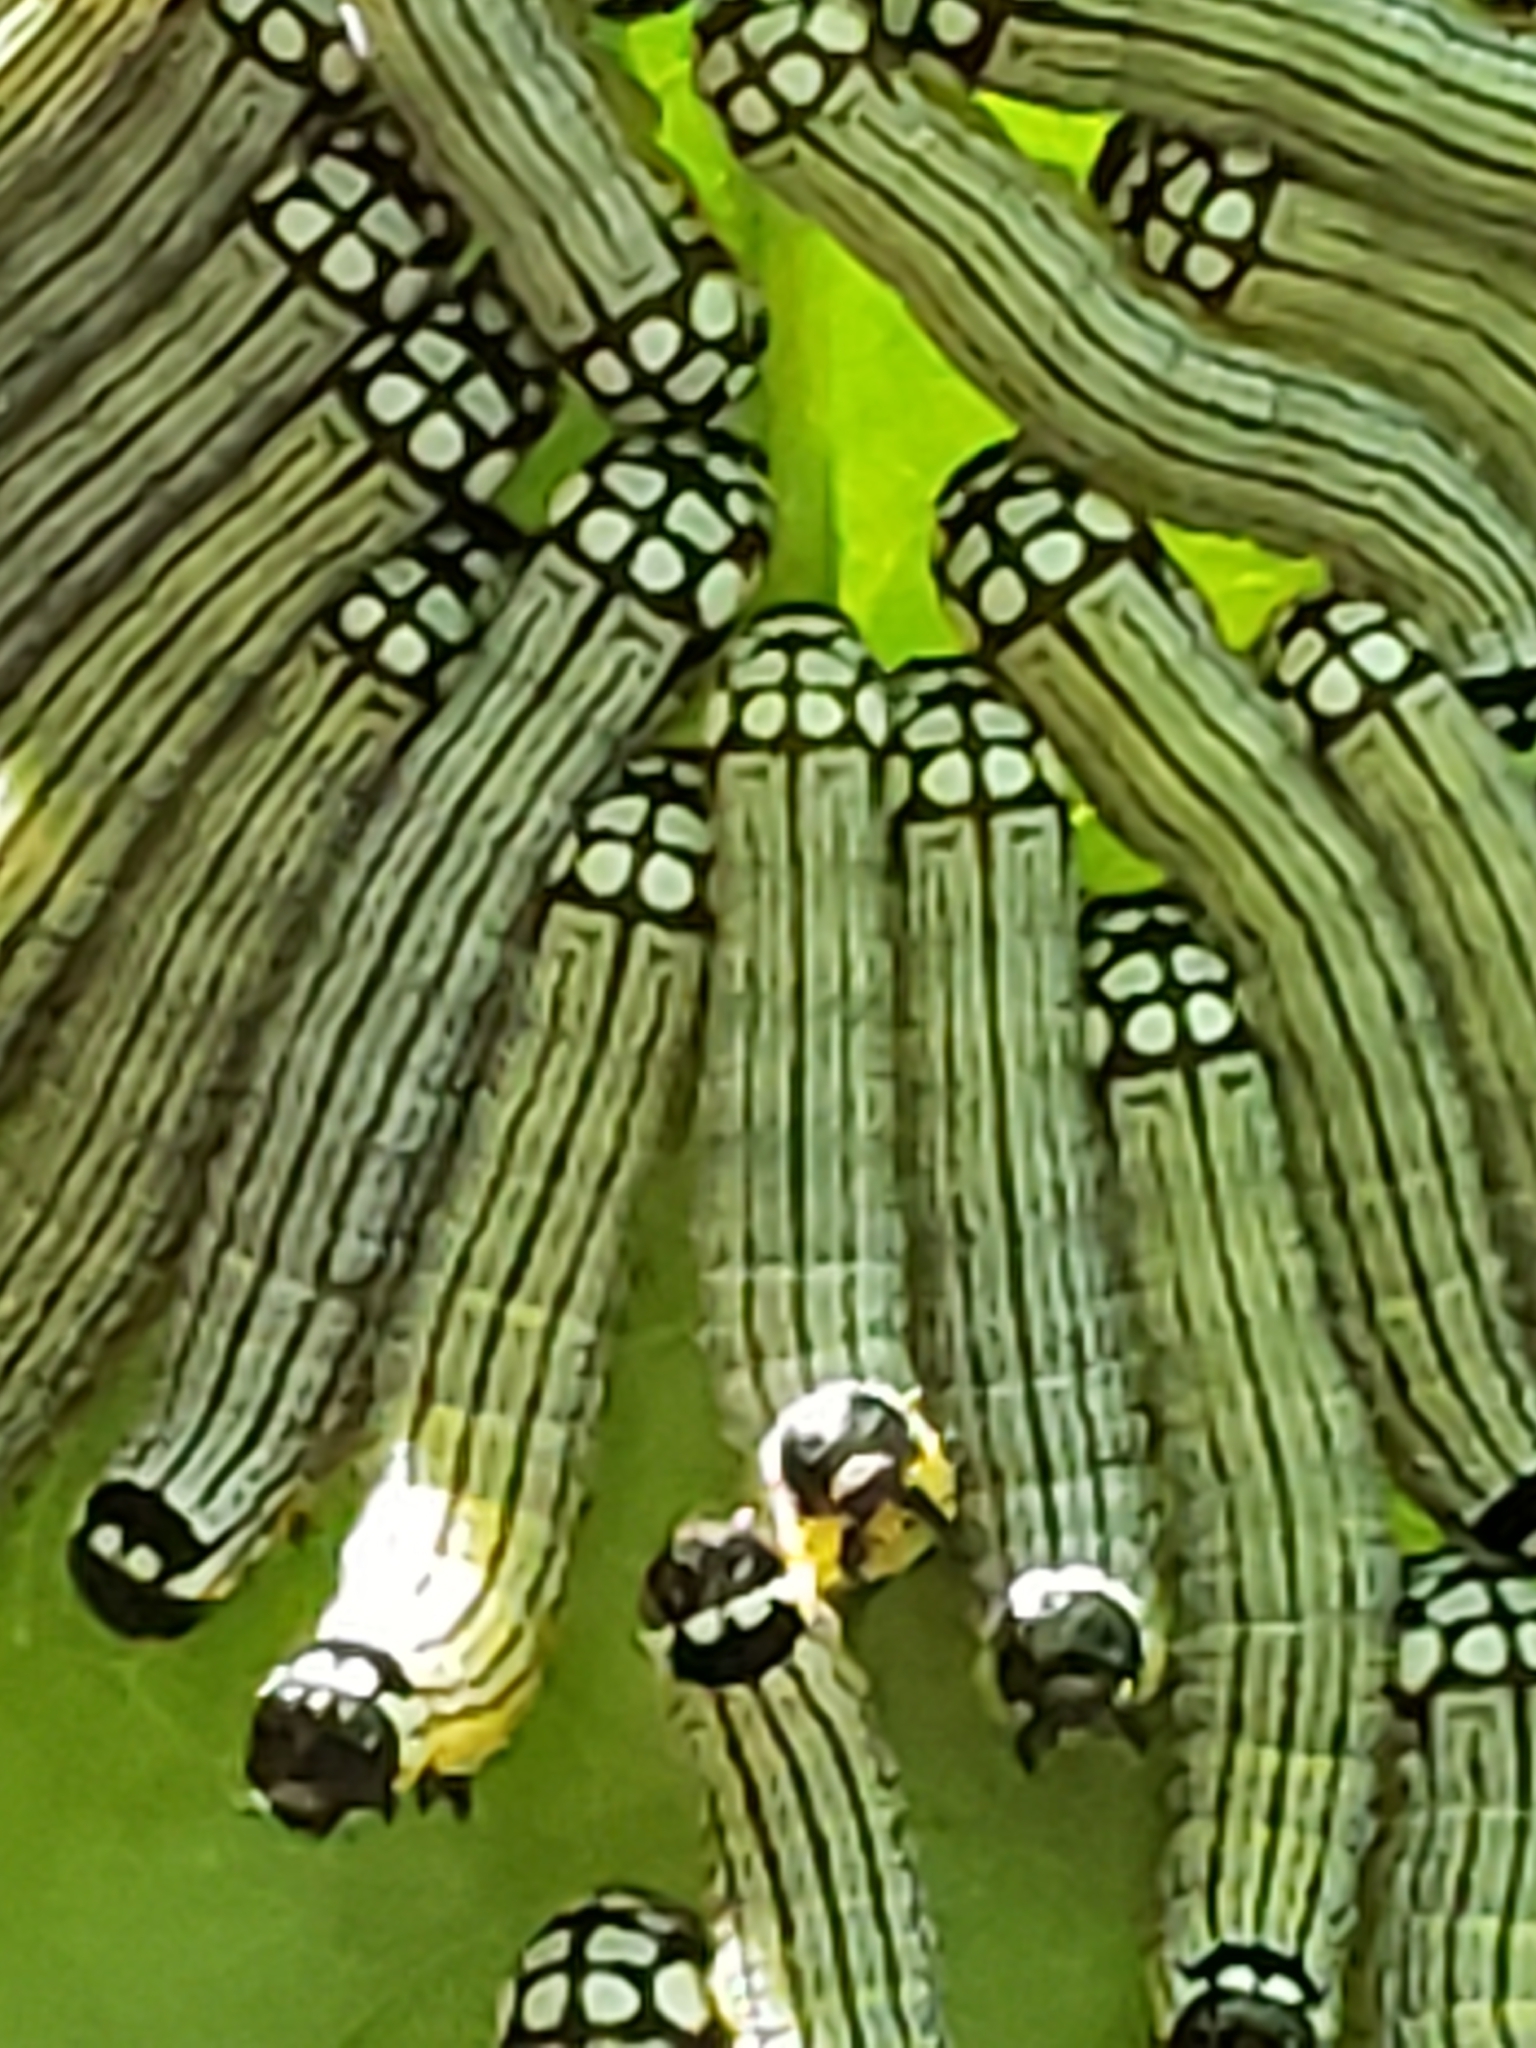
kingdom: Animalia
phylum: Arthropoda
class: Insecta
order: Lepidoptera
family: Noctuidae
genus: Phosphila
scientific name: Phosphila turbulenta
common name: Turbulent phosphila moth
